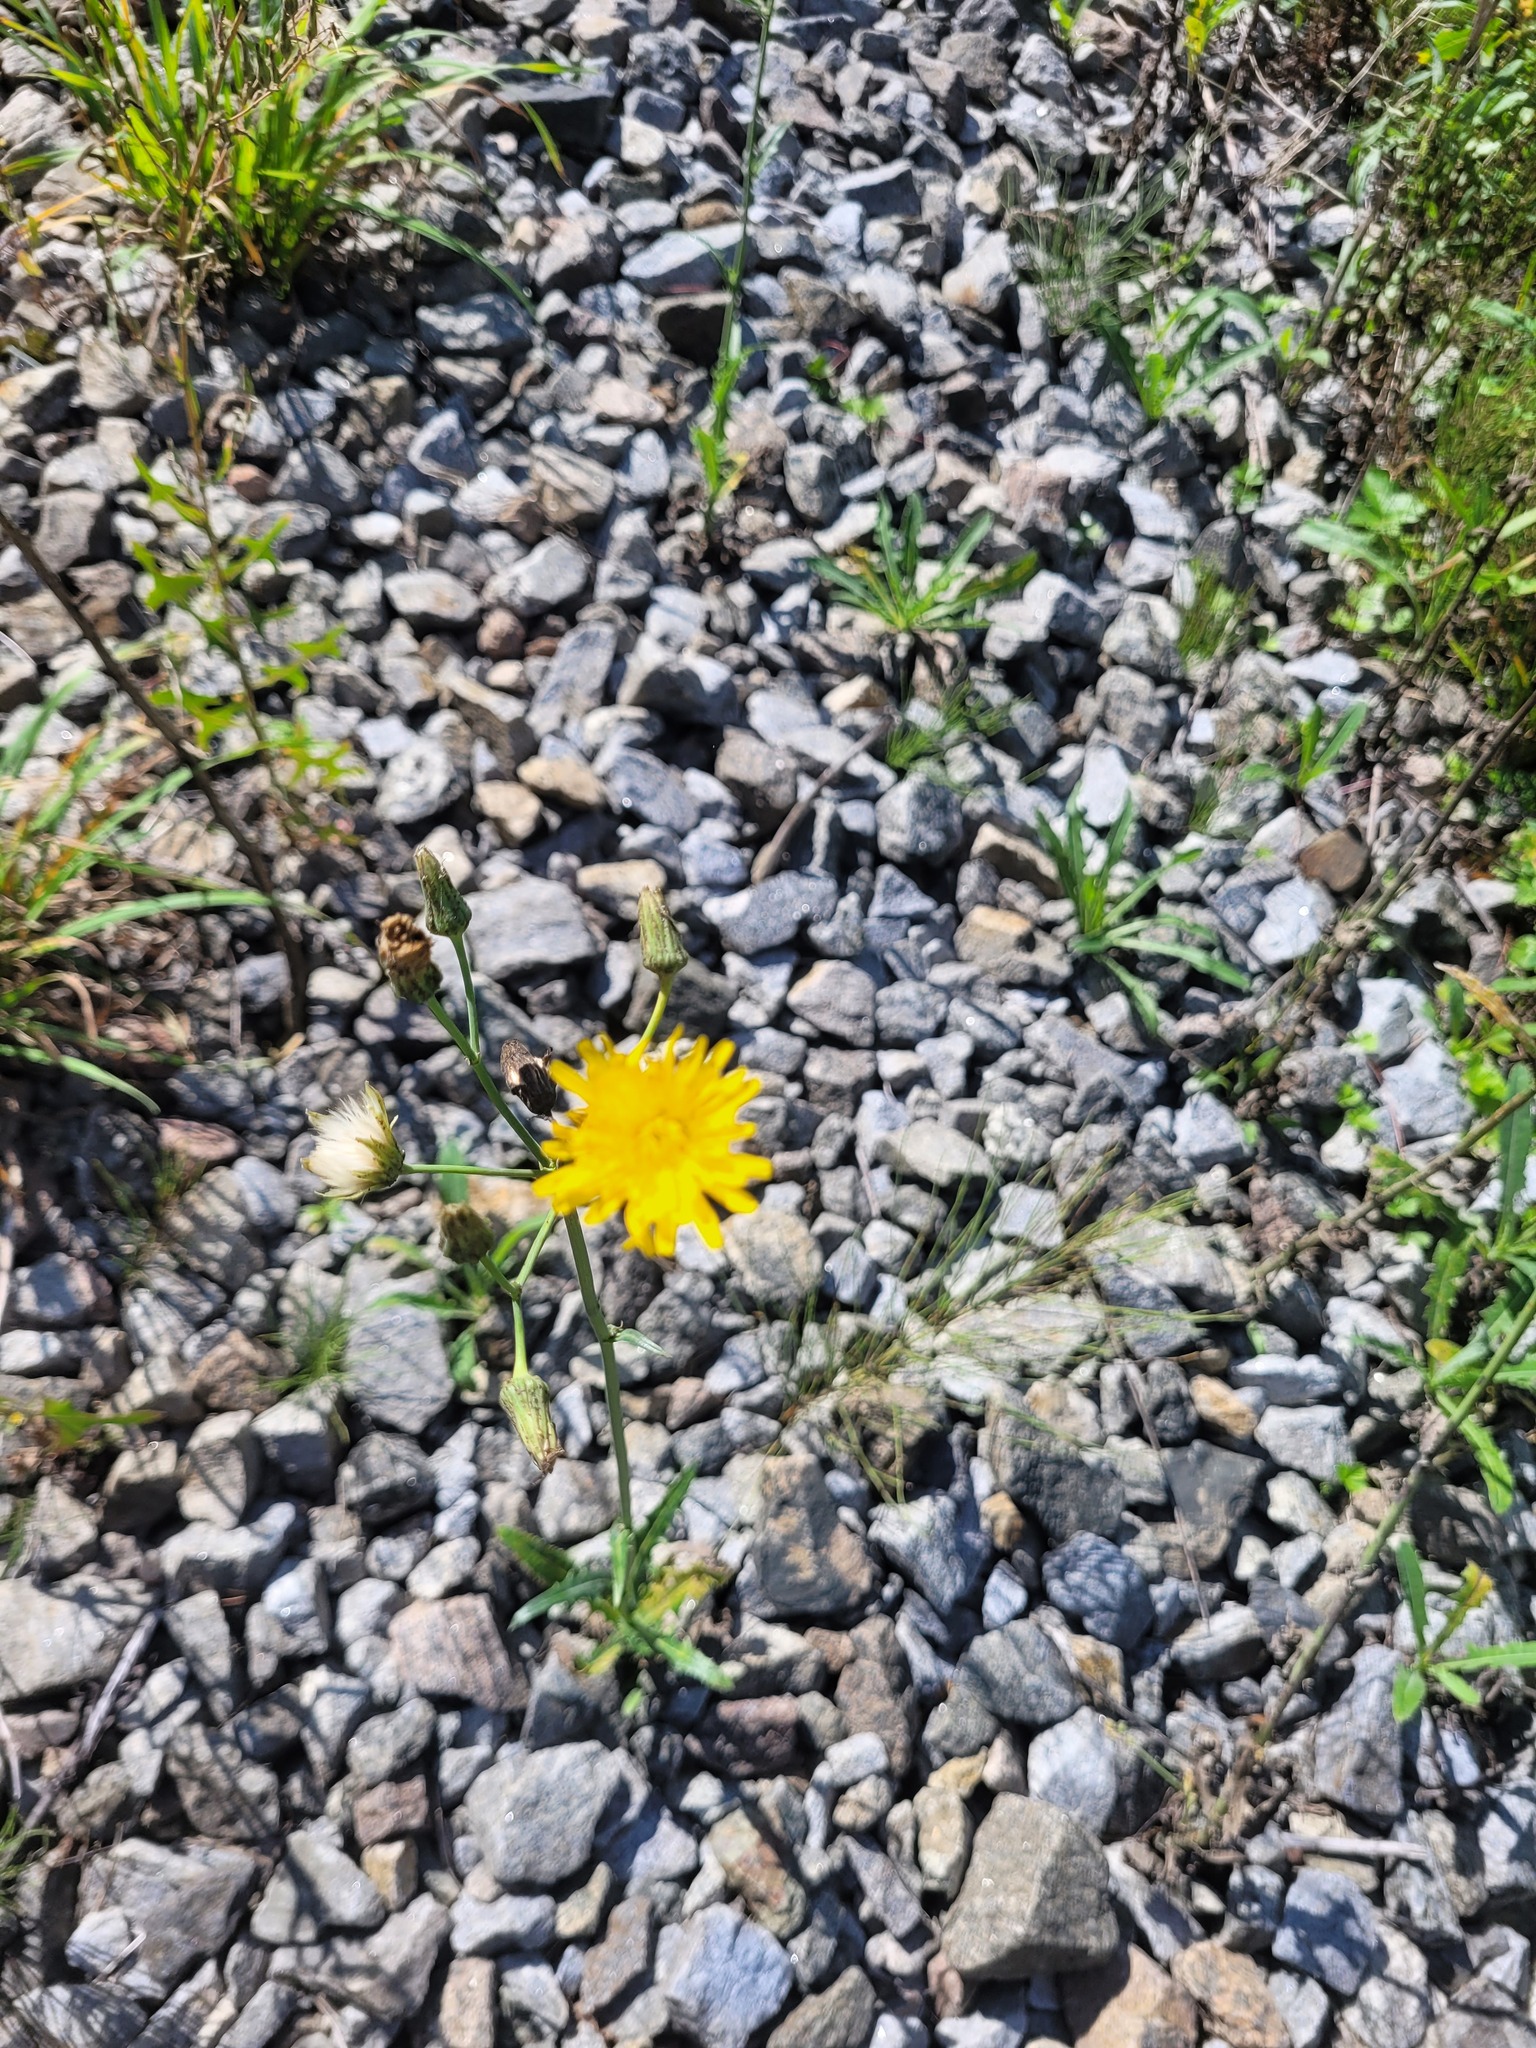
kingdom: Plantae
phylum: Tracheophyta
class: Magnoliopsida
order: Asterales
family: Asteraceae
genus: Sonchus
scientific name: Sonchus arvensis
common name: Perennial sow-thistle
